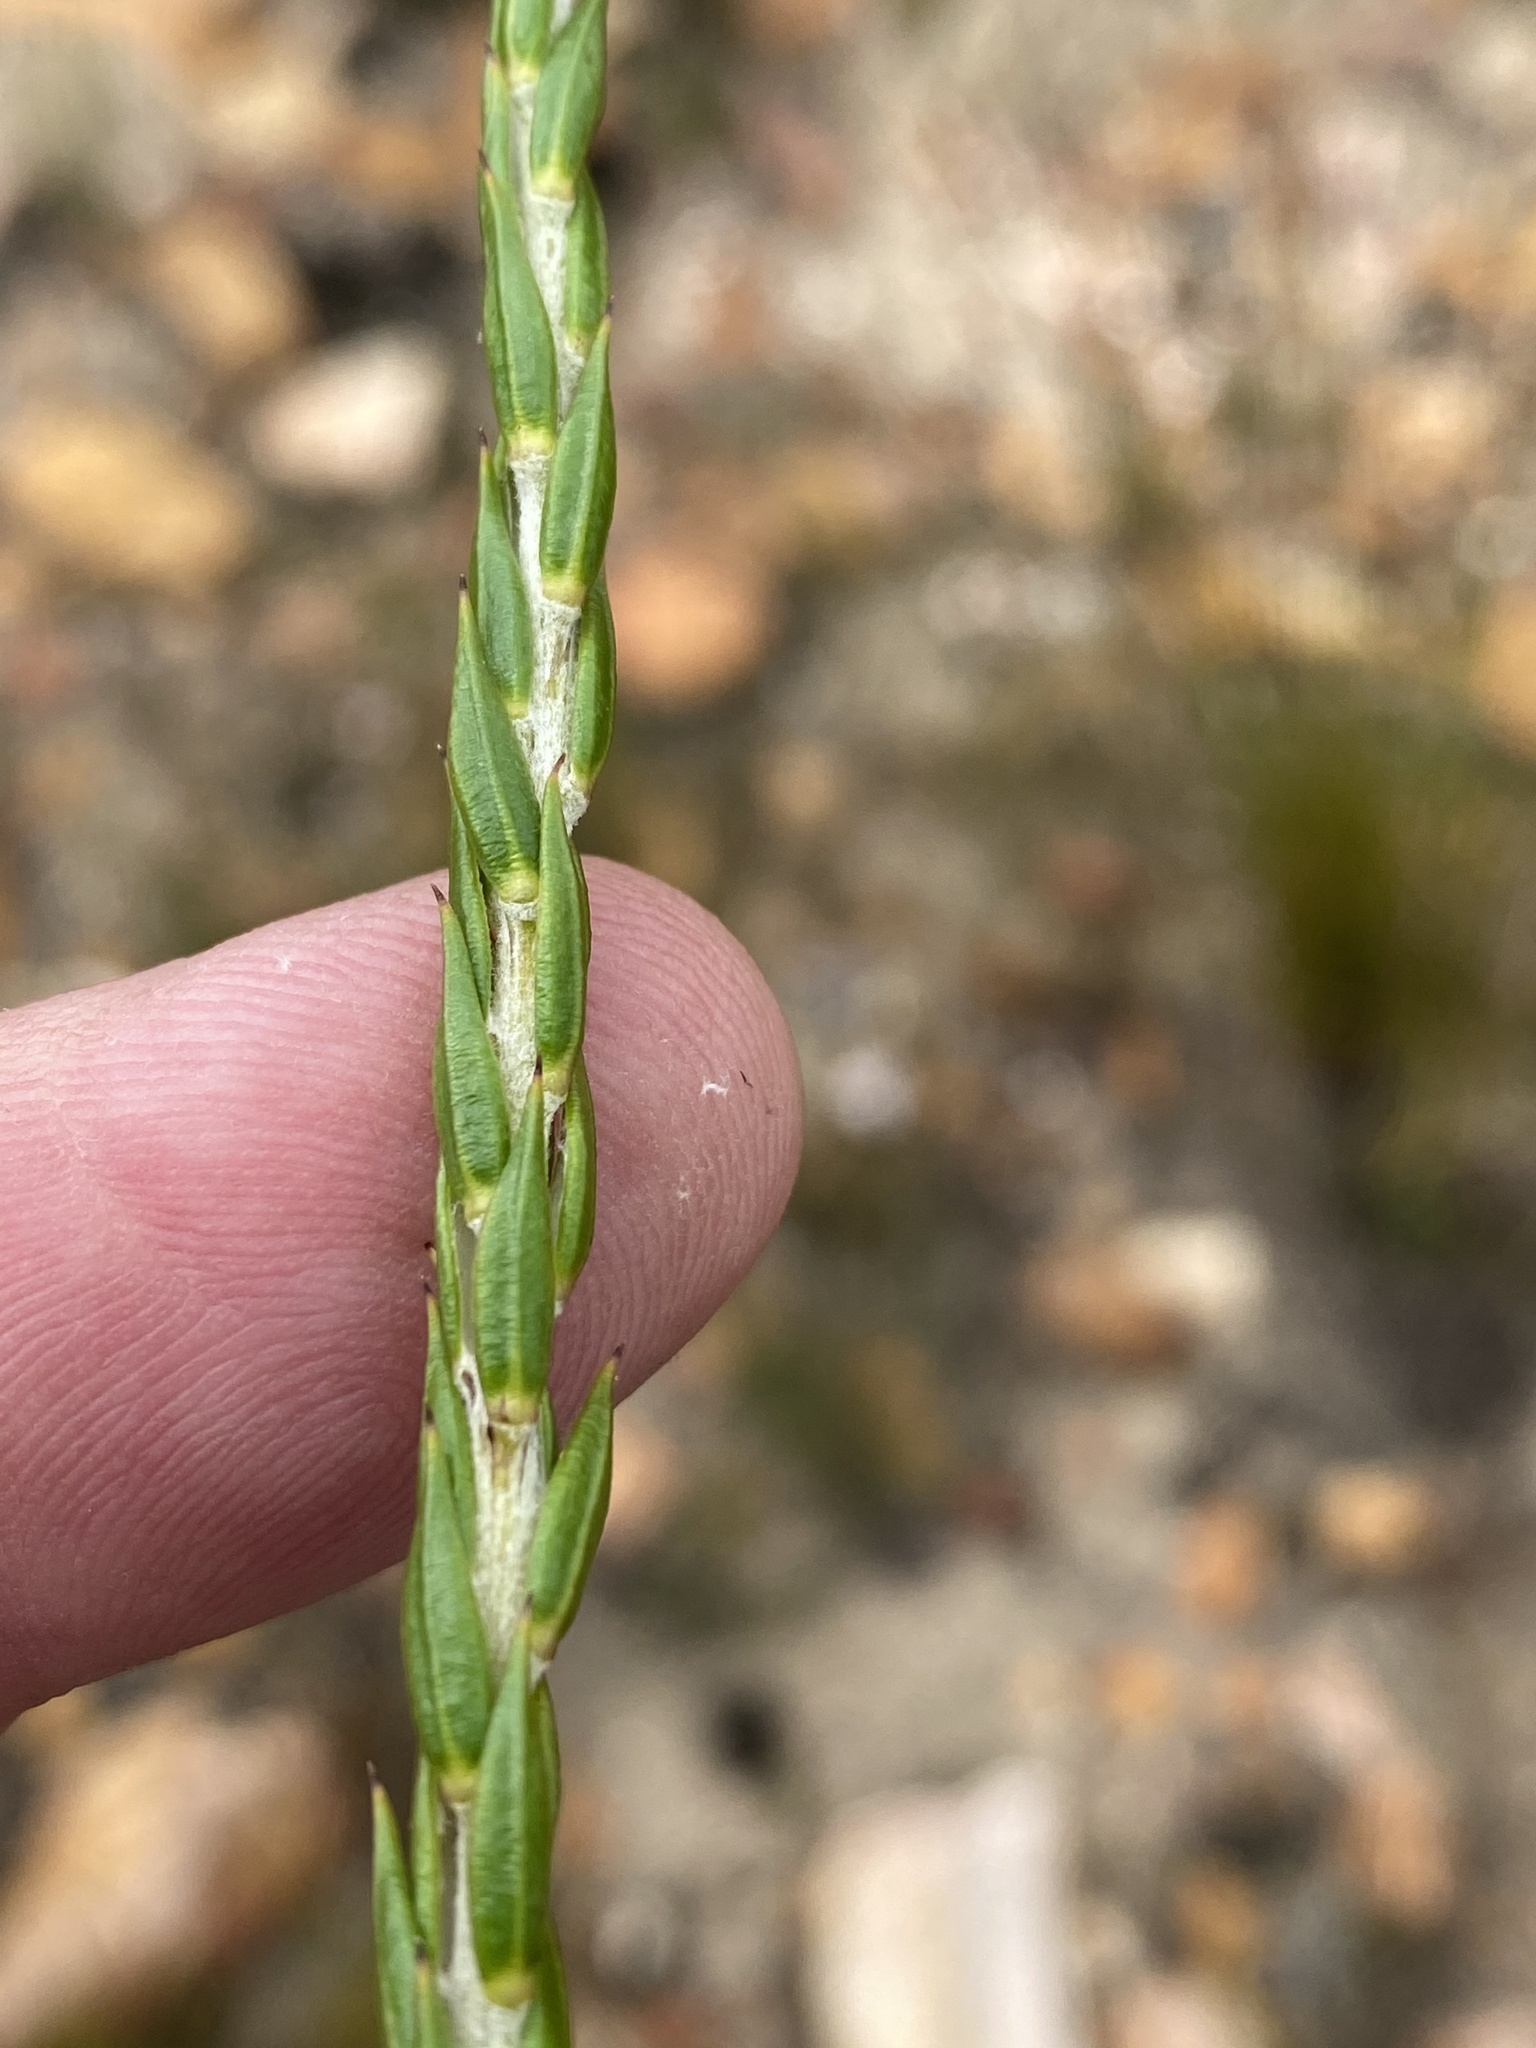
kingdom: Plantae
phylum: Tracheophyta
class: Magnoliopsida
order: Asterales
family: Asteraceae
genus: Metalasia
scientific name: Metalasia pulcherrima
